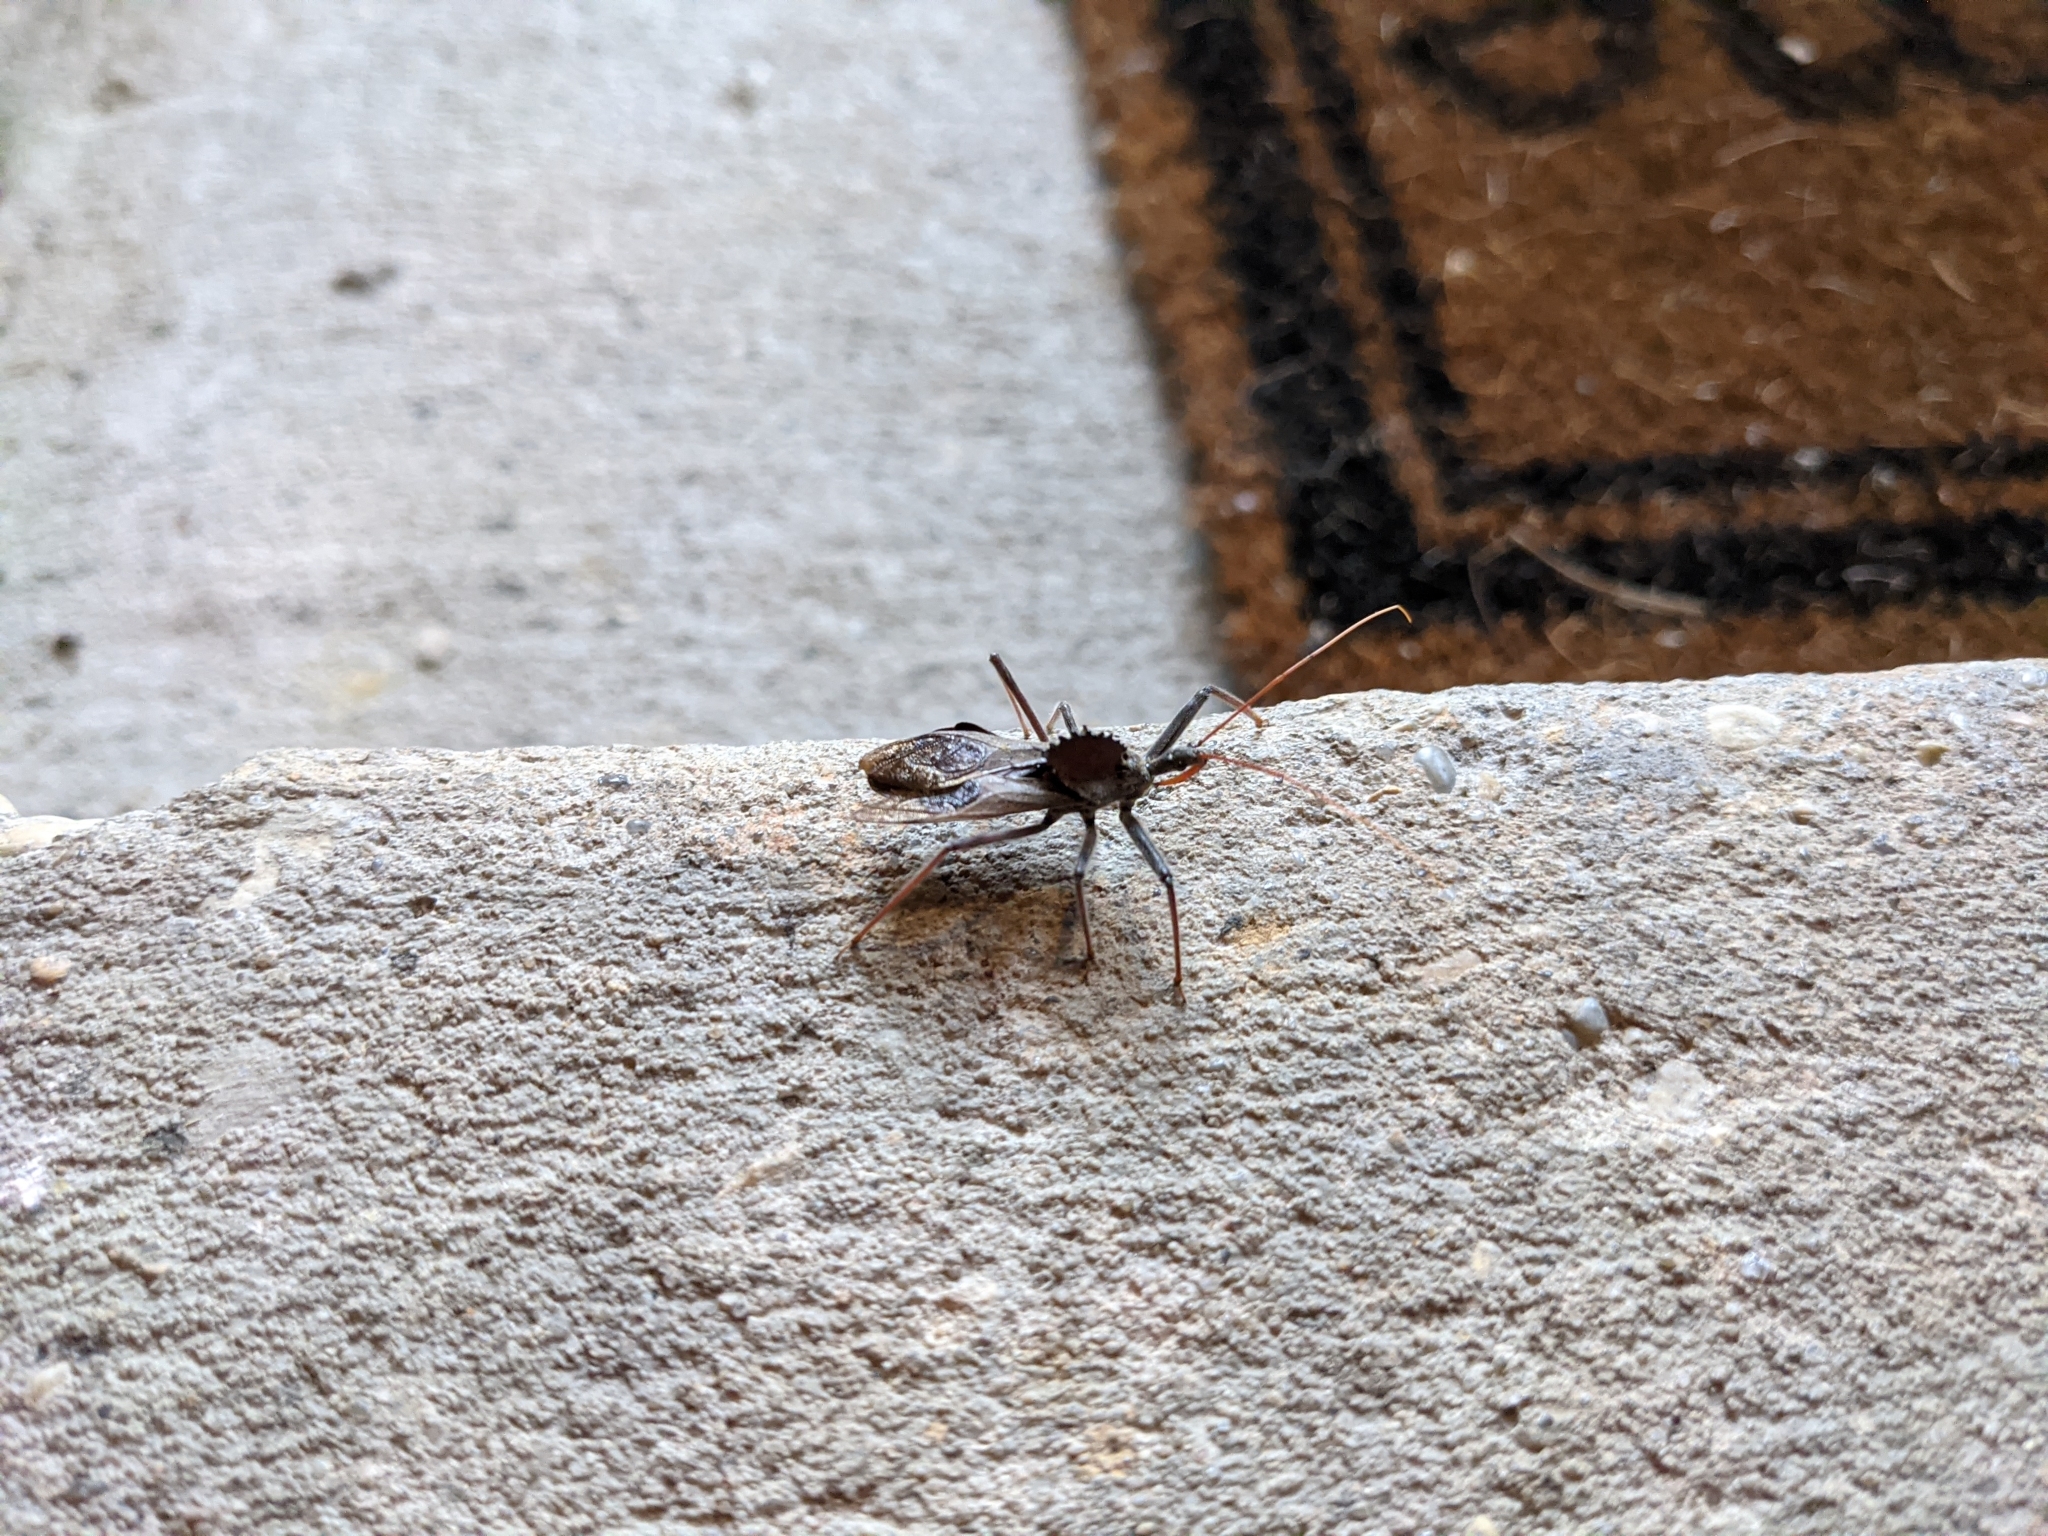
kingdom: Animalia
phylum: Arthropoda
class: Insecta
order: Hemiptera
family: Reduviidae
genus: Arilus
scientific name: Arilus cristatus
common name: North american wheel bug
